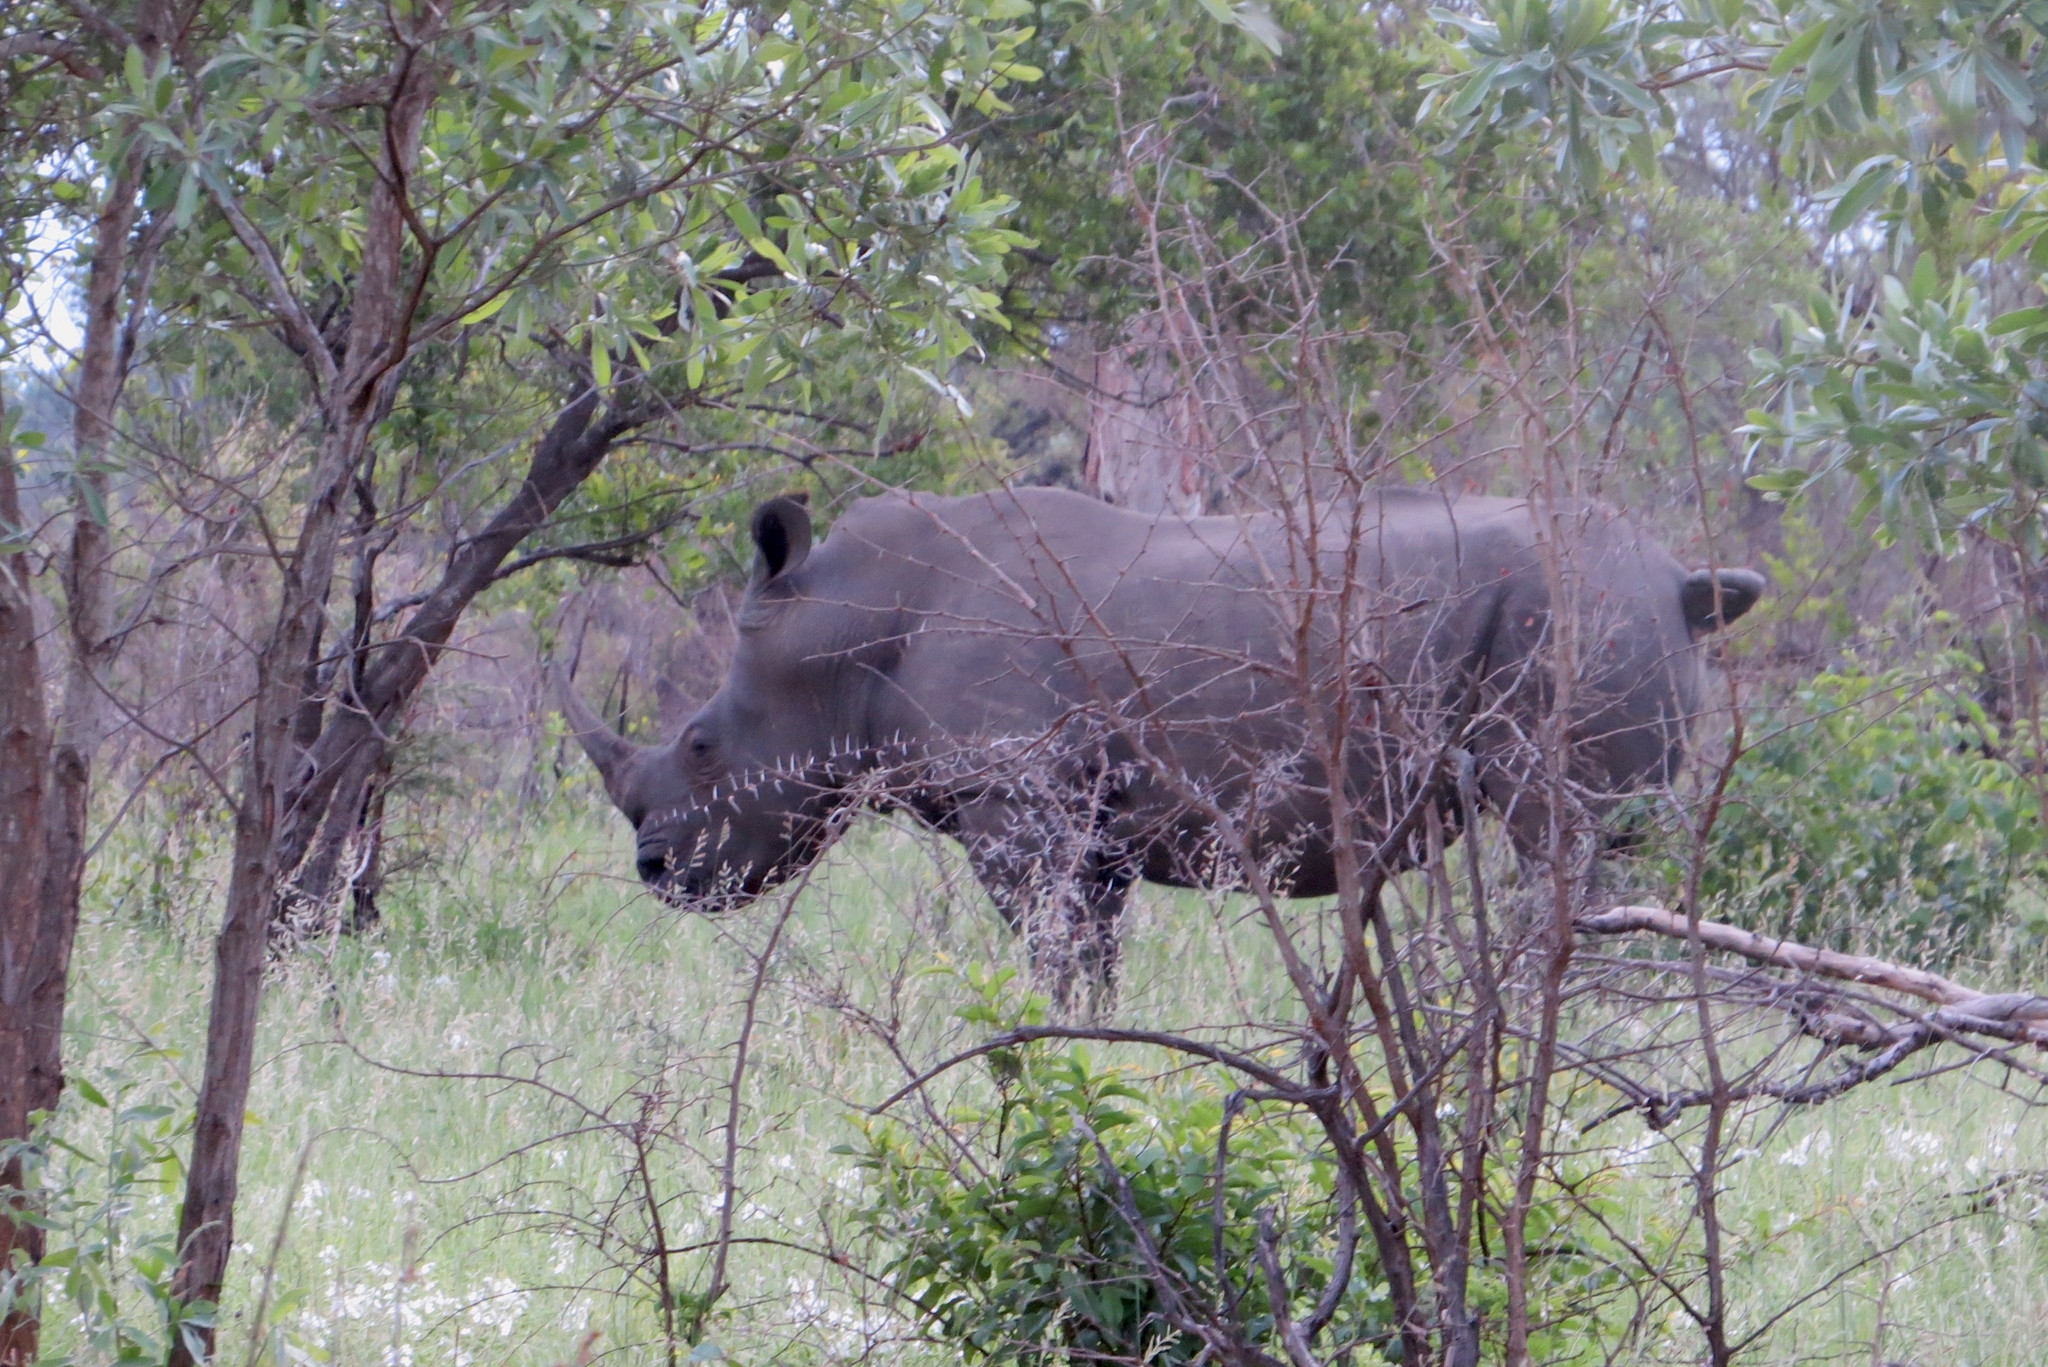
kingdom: Animalia
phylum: Chordata
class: Mammalia
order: Perissodactyla
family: Rhinocerotidae
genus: Ceratotherium
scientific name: Ceratotherium simum
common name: White rhinoceros
